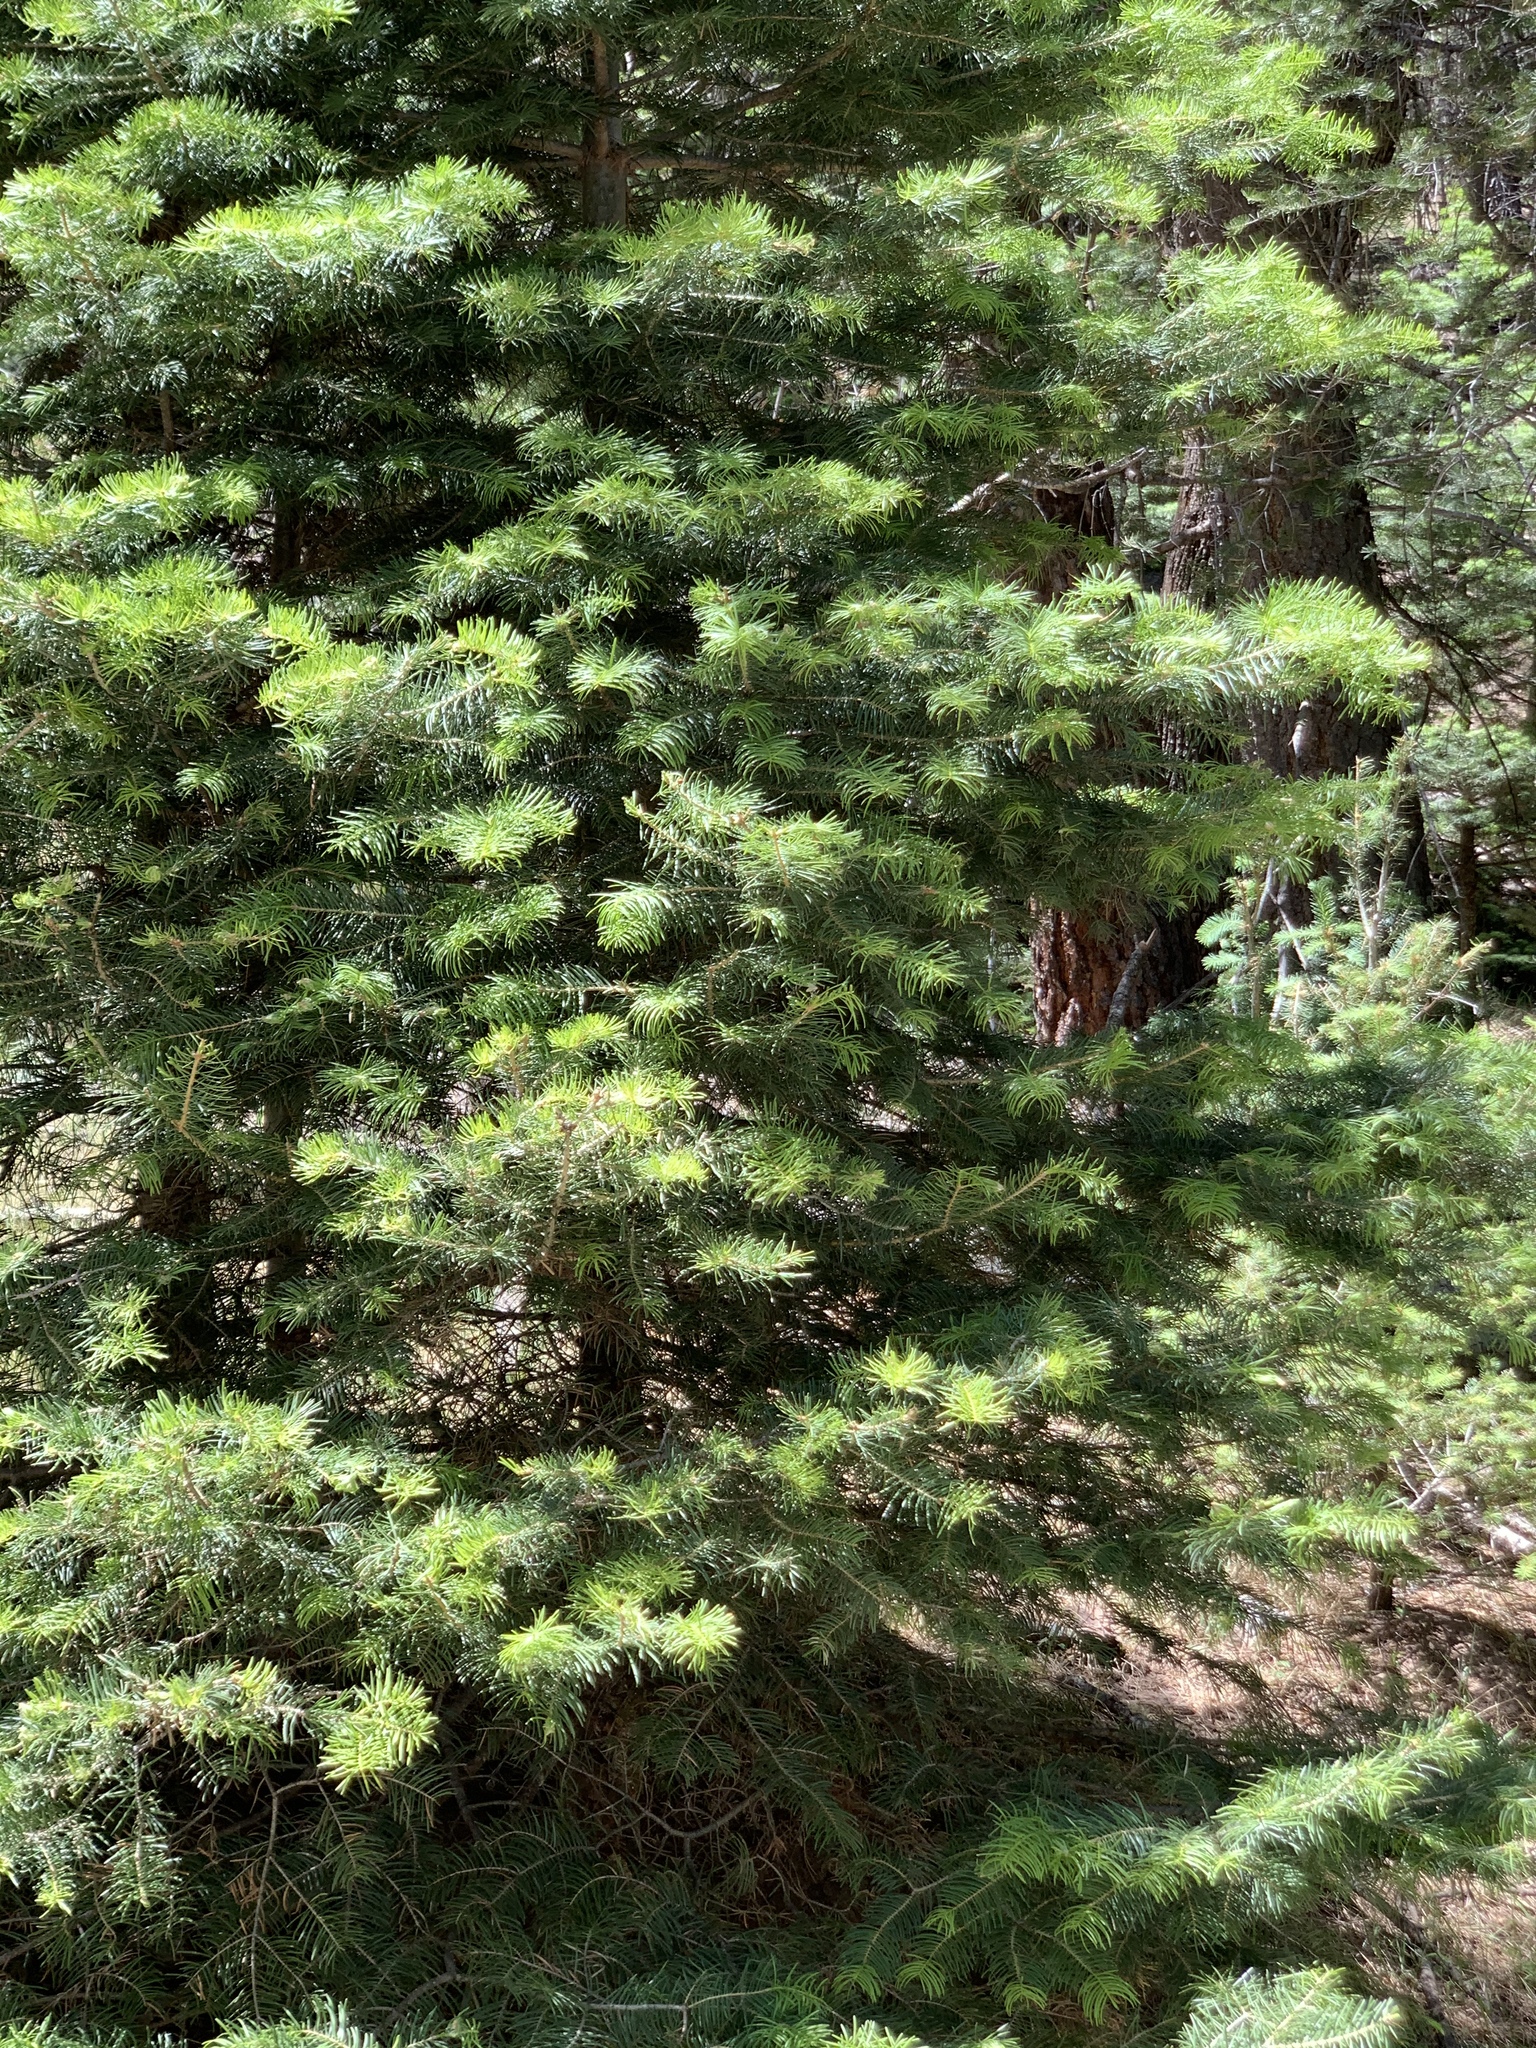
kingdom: Plantae
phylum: Tracheophyta
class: Pinopsida
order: Pinales
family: Pinaceae
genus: Abies
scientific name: Abies concolor
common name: Colorado fir
